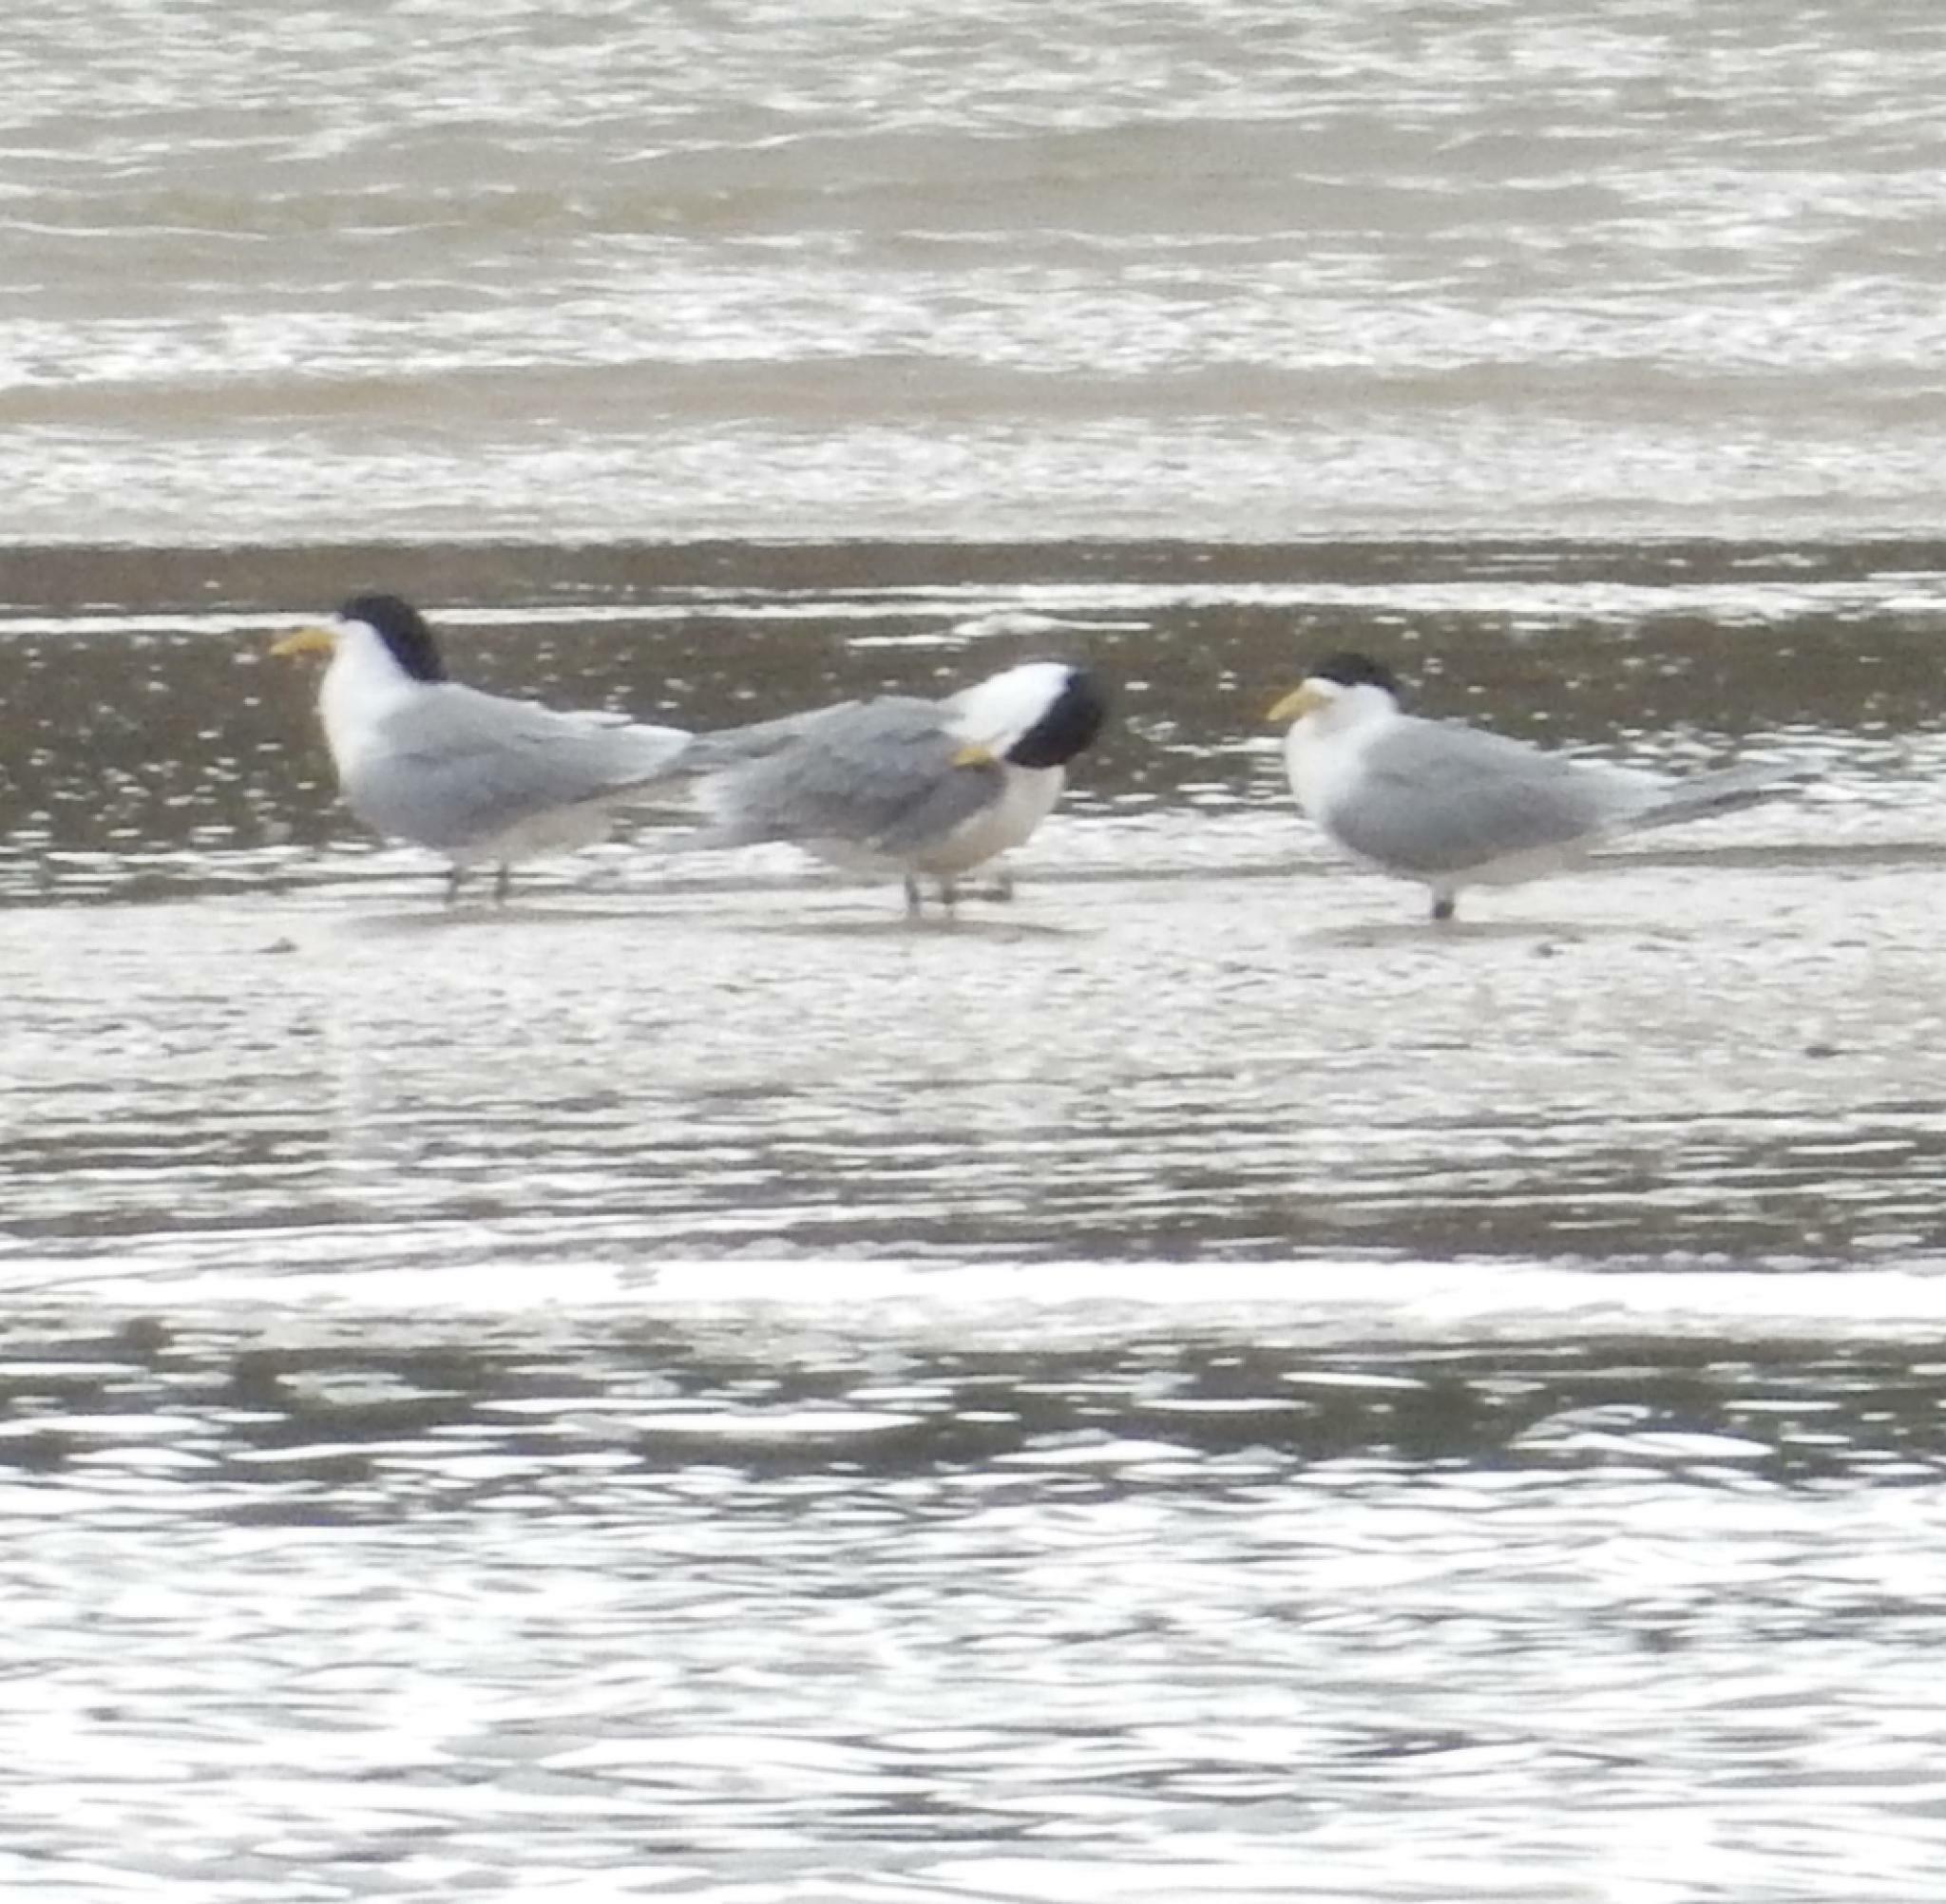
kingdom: Animalia
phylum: Chordata
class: Aves
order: Charadriiformes
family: Laridae
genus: Thalasseus
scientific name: Thalasseus bergii
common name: Greater crested tern
